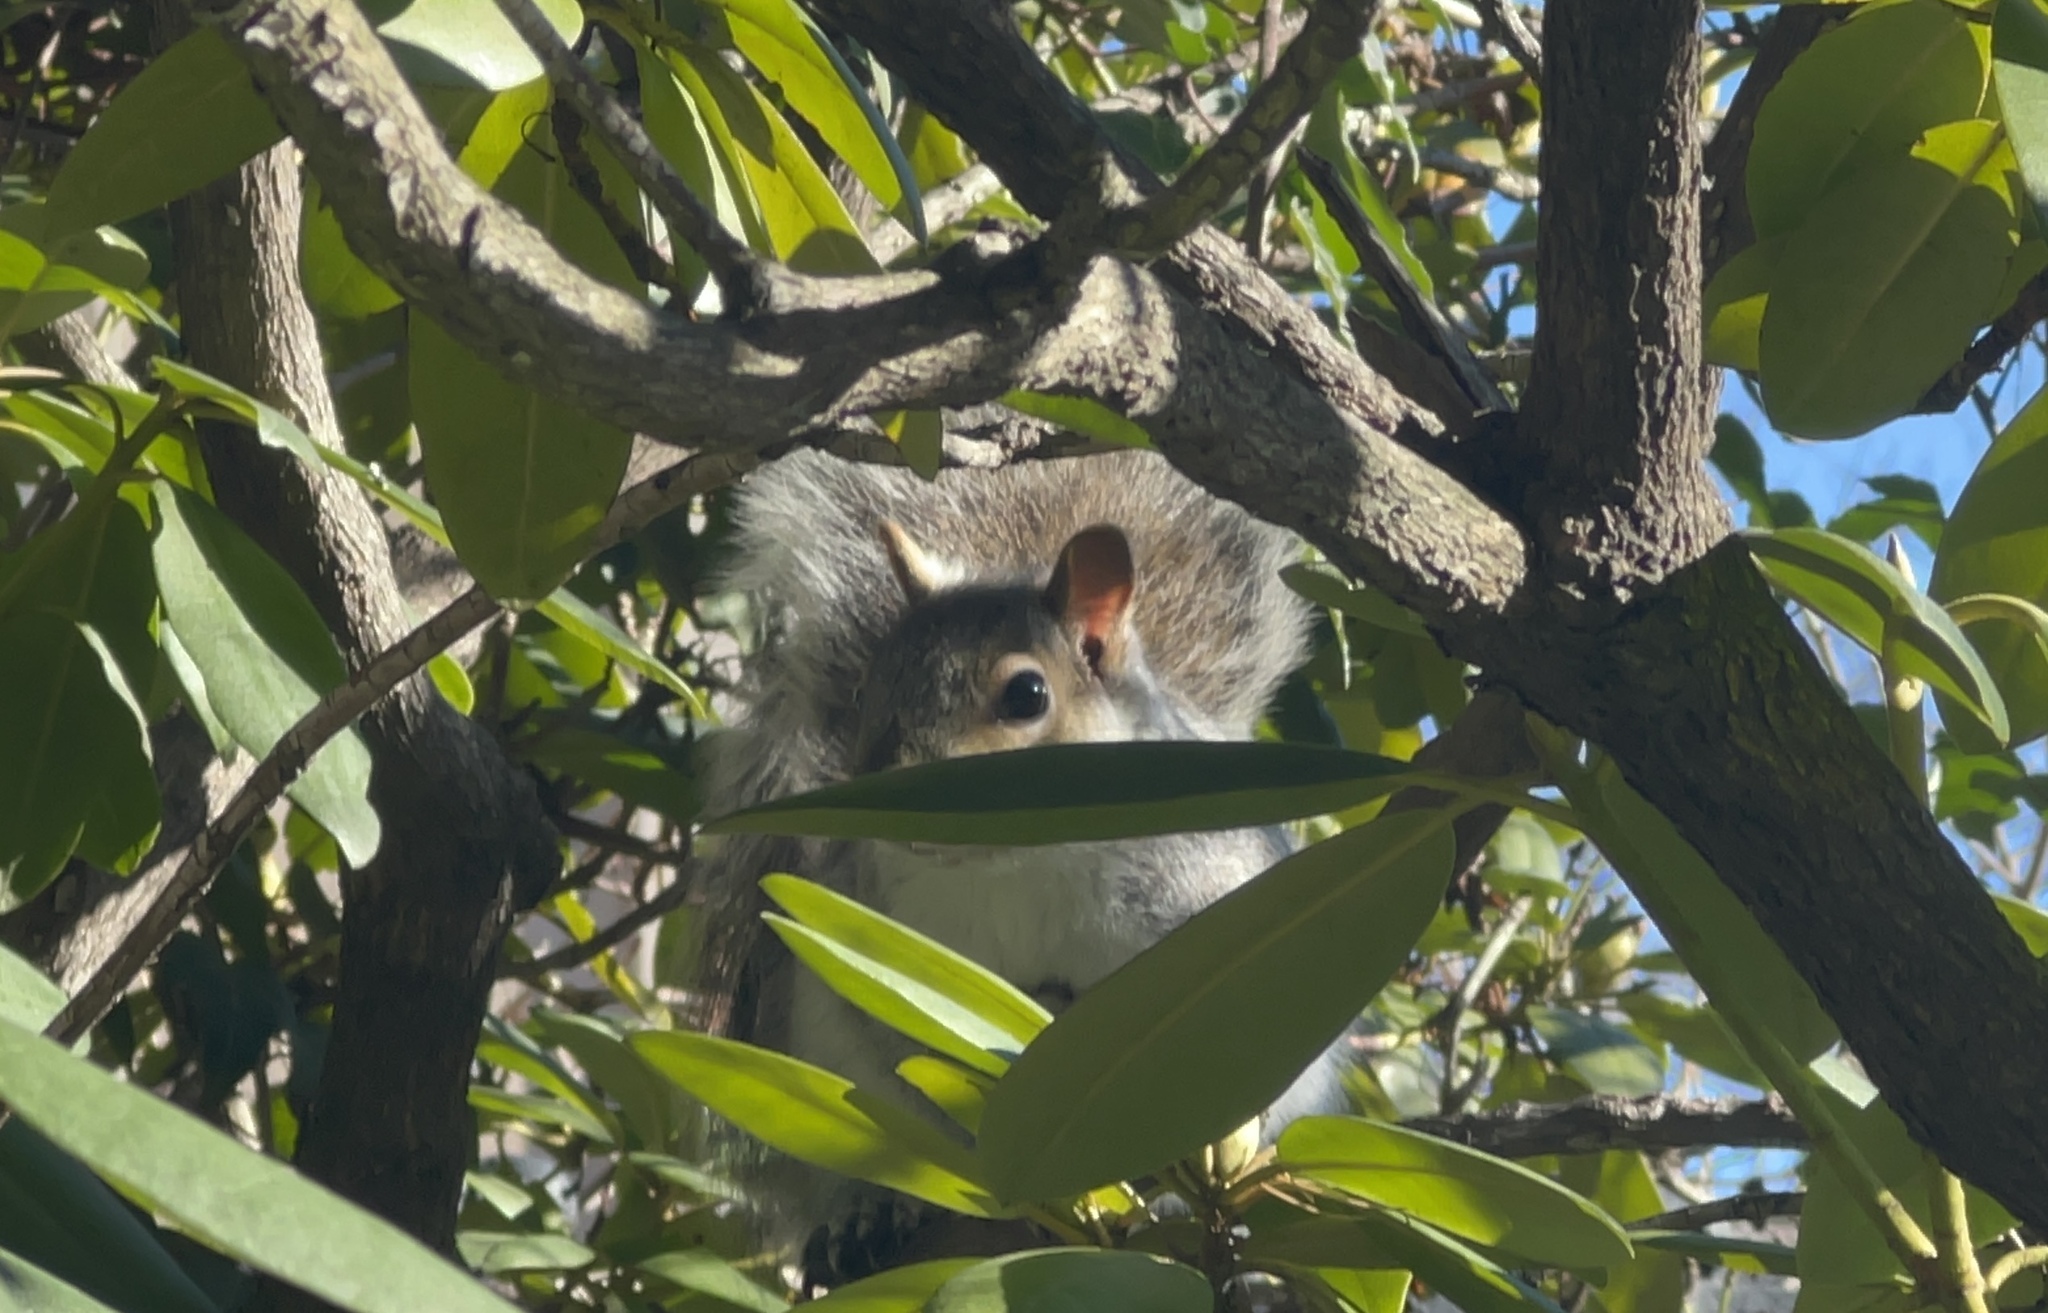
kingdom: Animalia
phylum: Chordata
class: Mammalia
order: Rodentia
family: Sciuridae
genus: Sciurus
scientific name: Sciurus carolinensis
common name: Eastern gray squirrel
